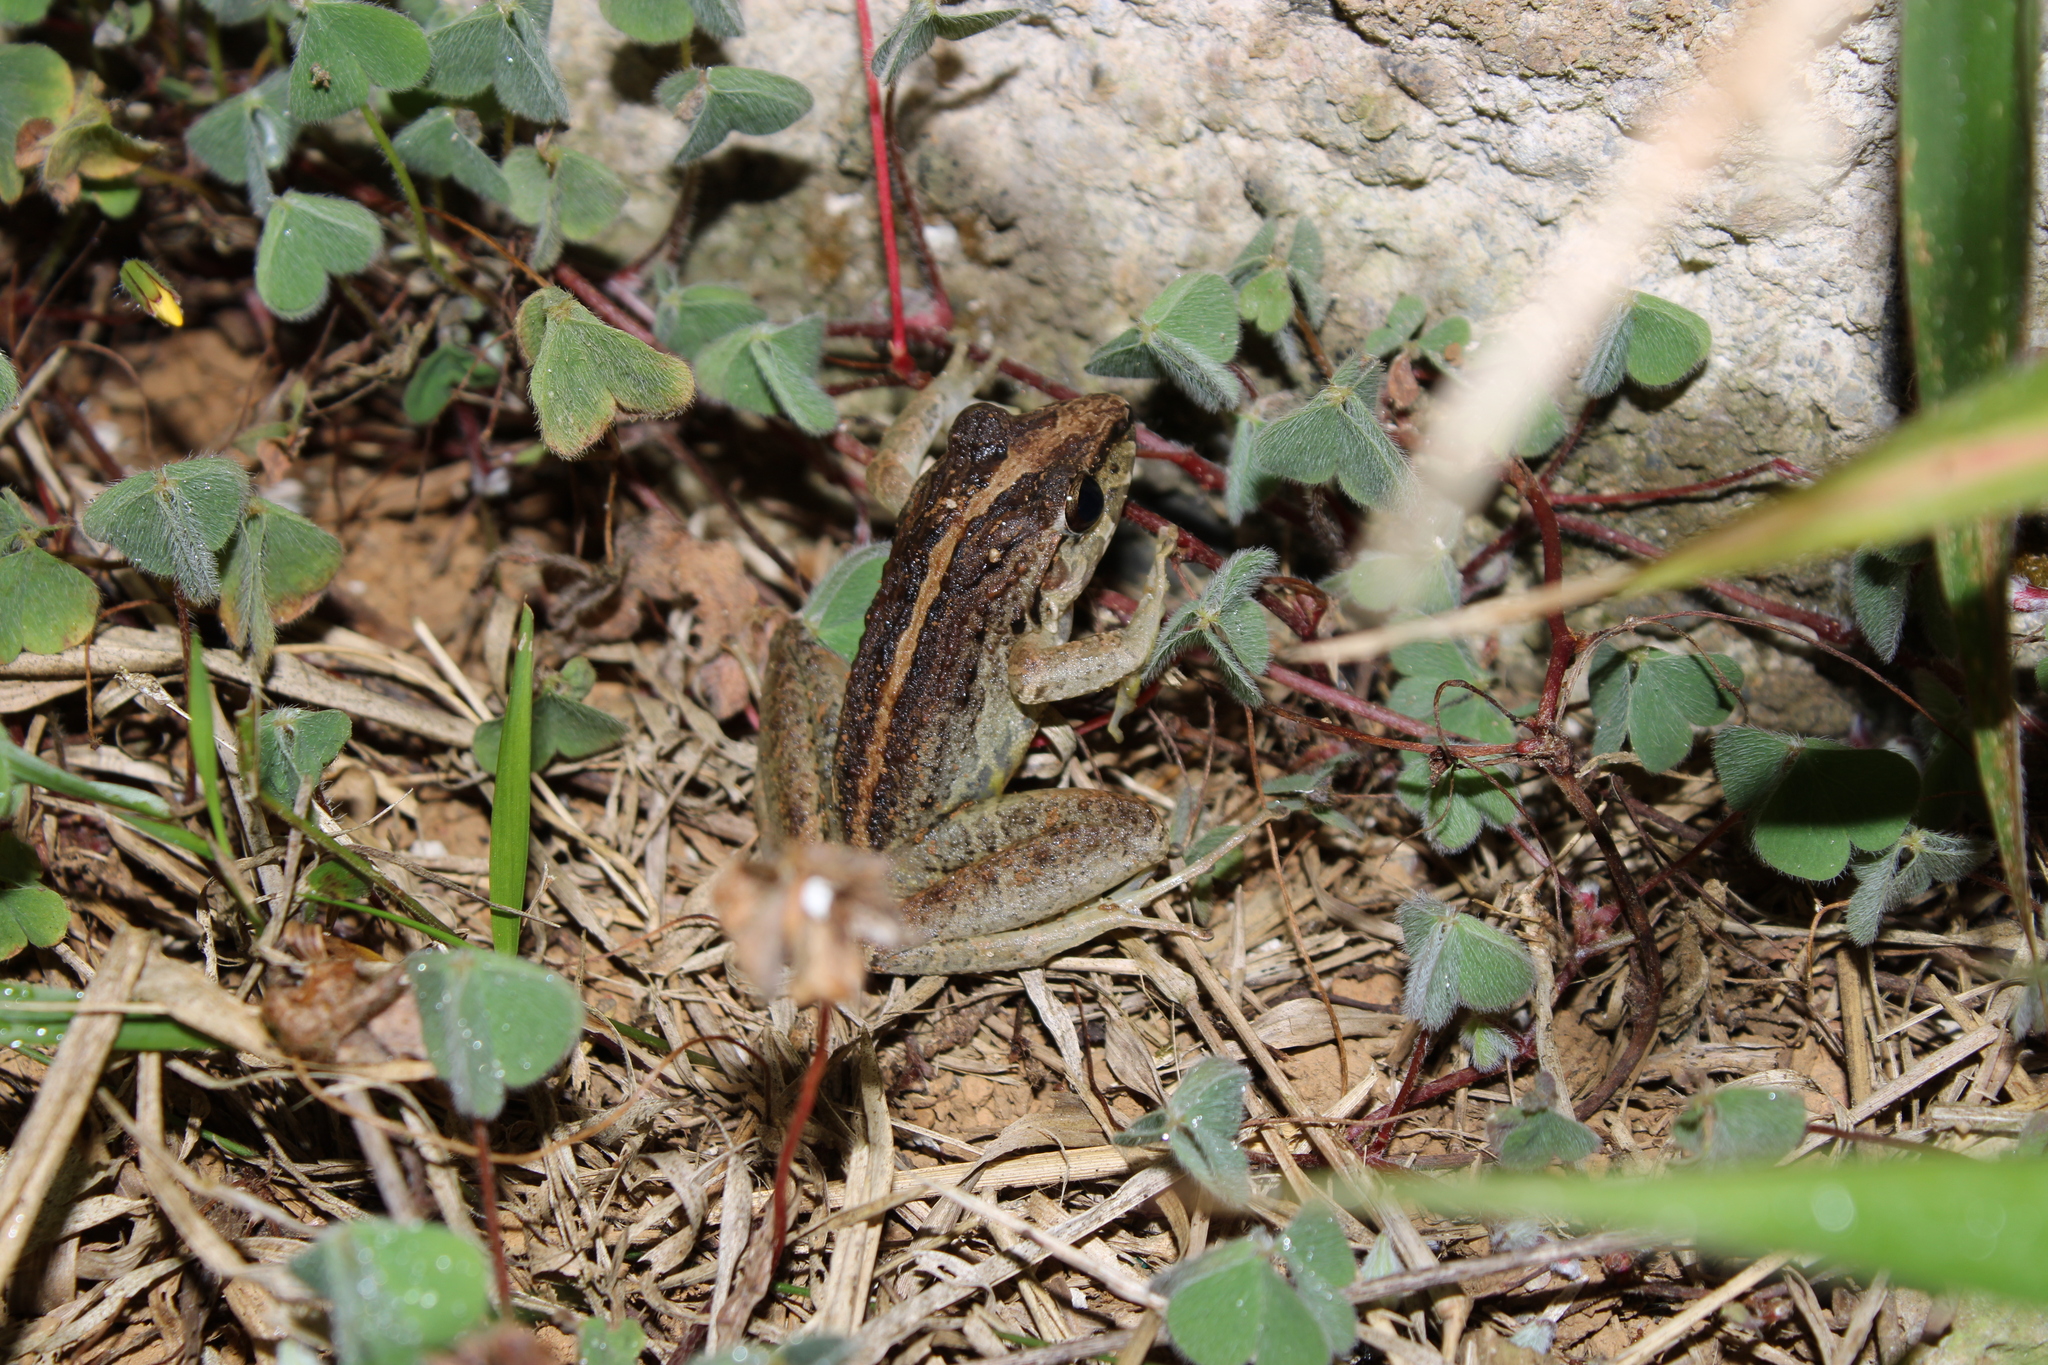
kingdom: Animalia
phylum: Chordata
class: Amphibia
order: Anura
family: Craugastoridae
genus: Craugastor
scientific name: Craugastor fitzingeri
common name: Fitzinger's robber frog
